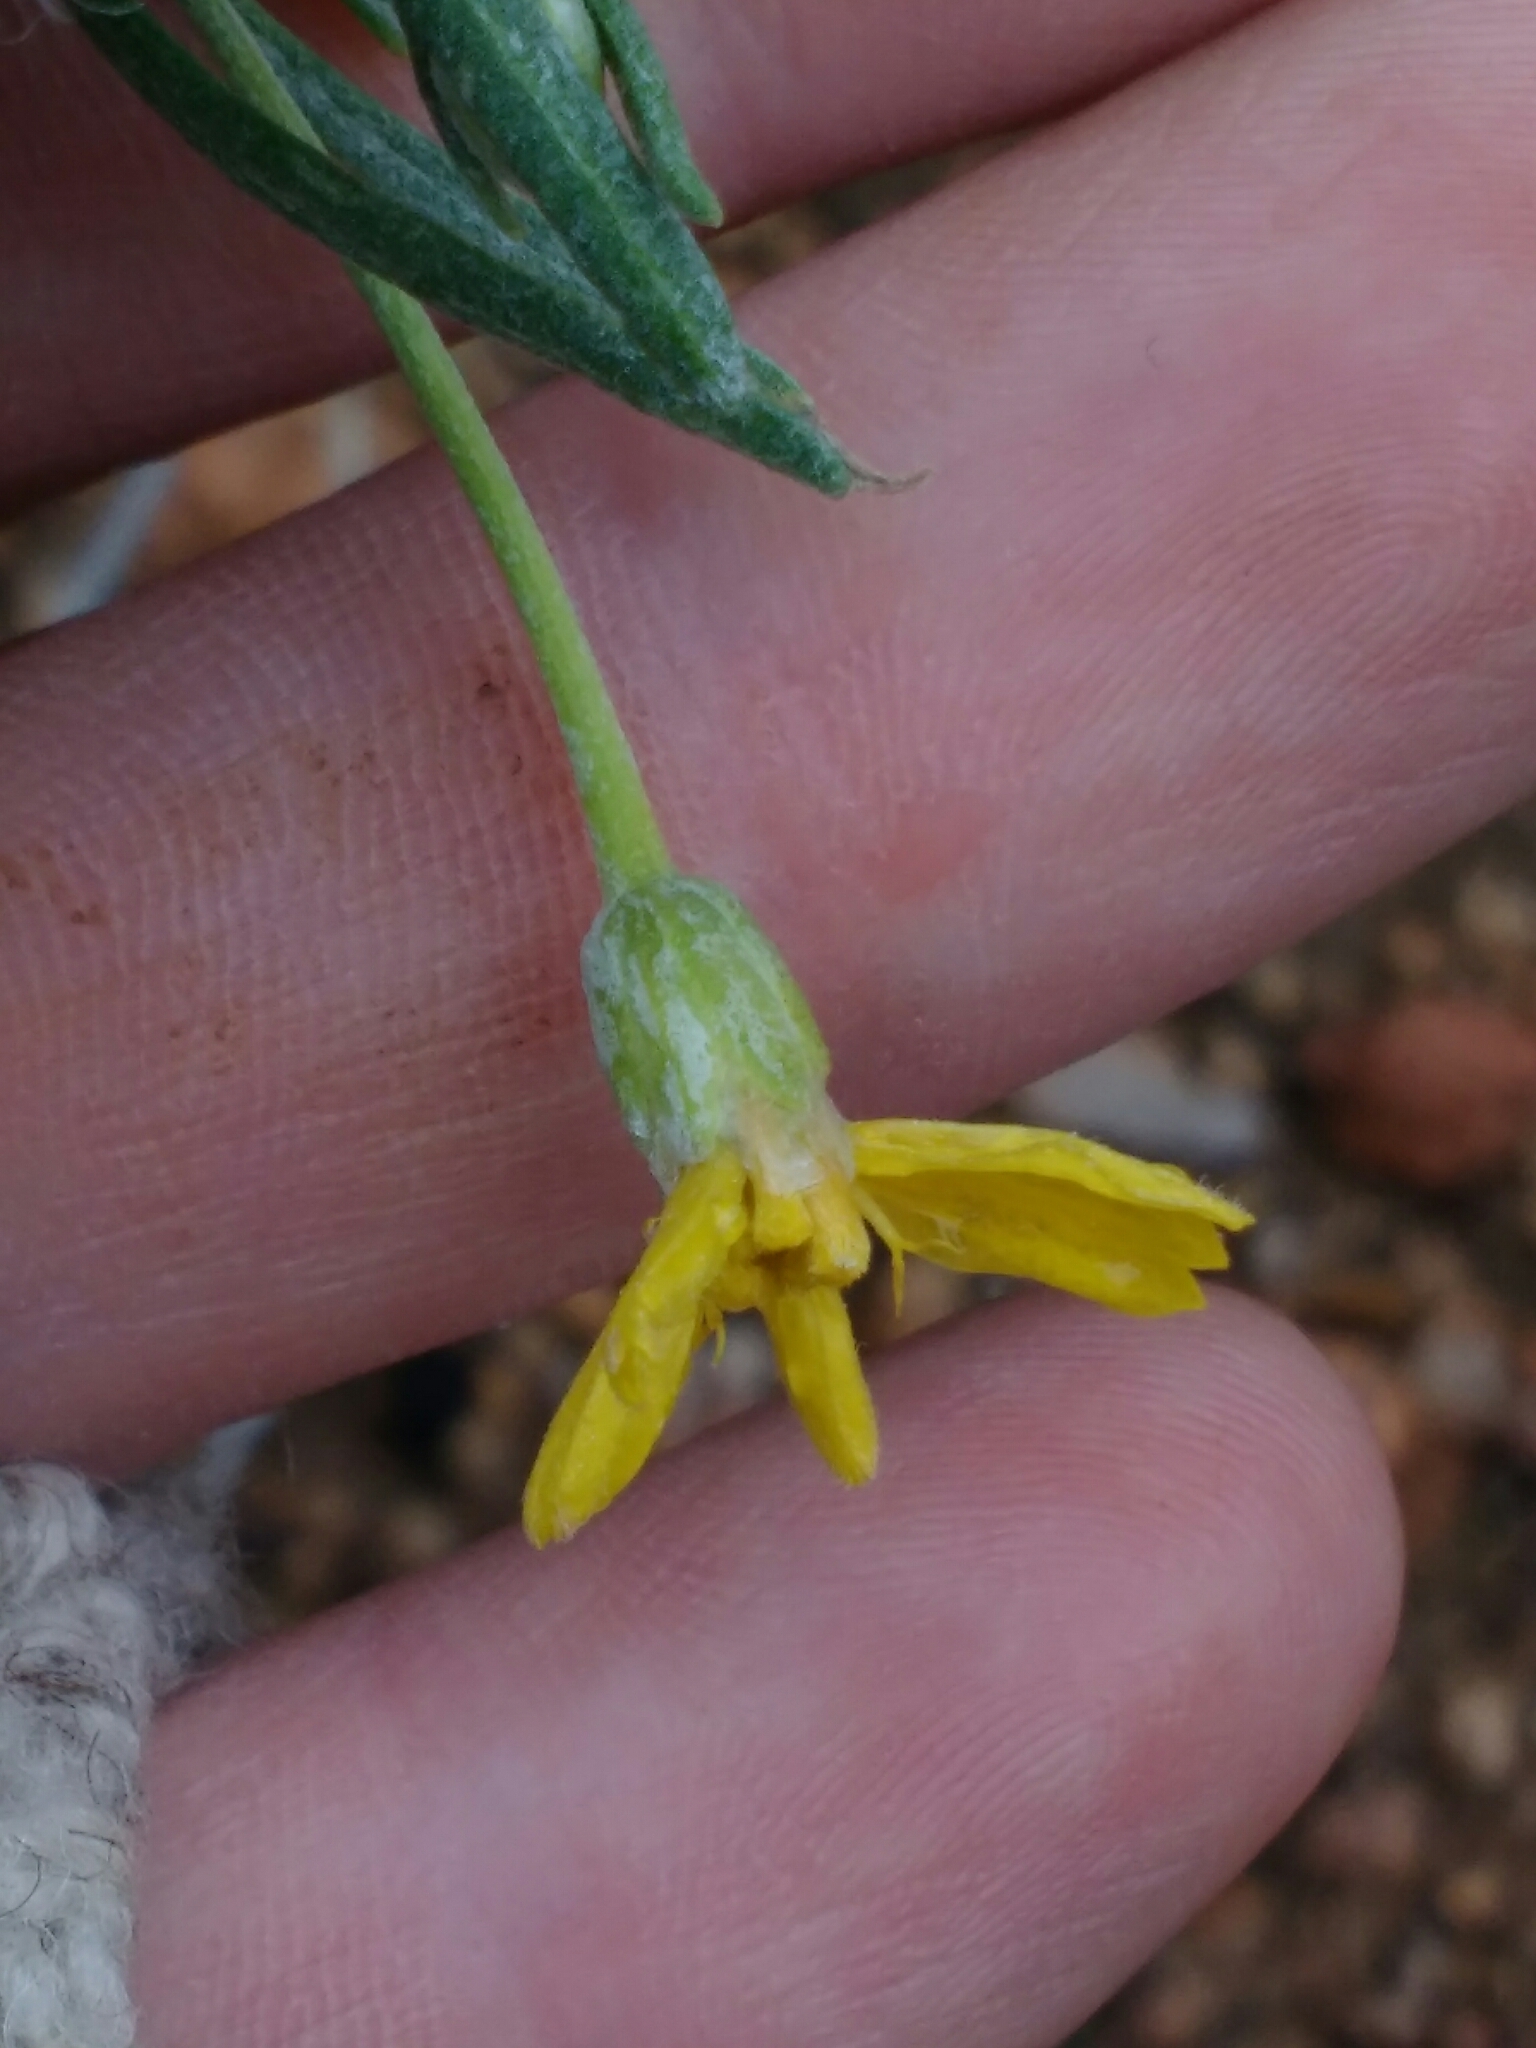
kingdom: Plantae
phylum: Tracheophyta
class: Magnoliopsida
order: Asterales
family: Asteraceae
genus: Psilostrophe
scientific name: Psilostrophe cooperi
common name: White-stem paper-flower
